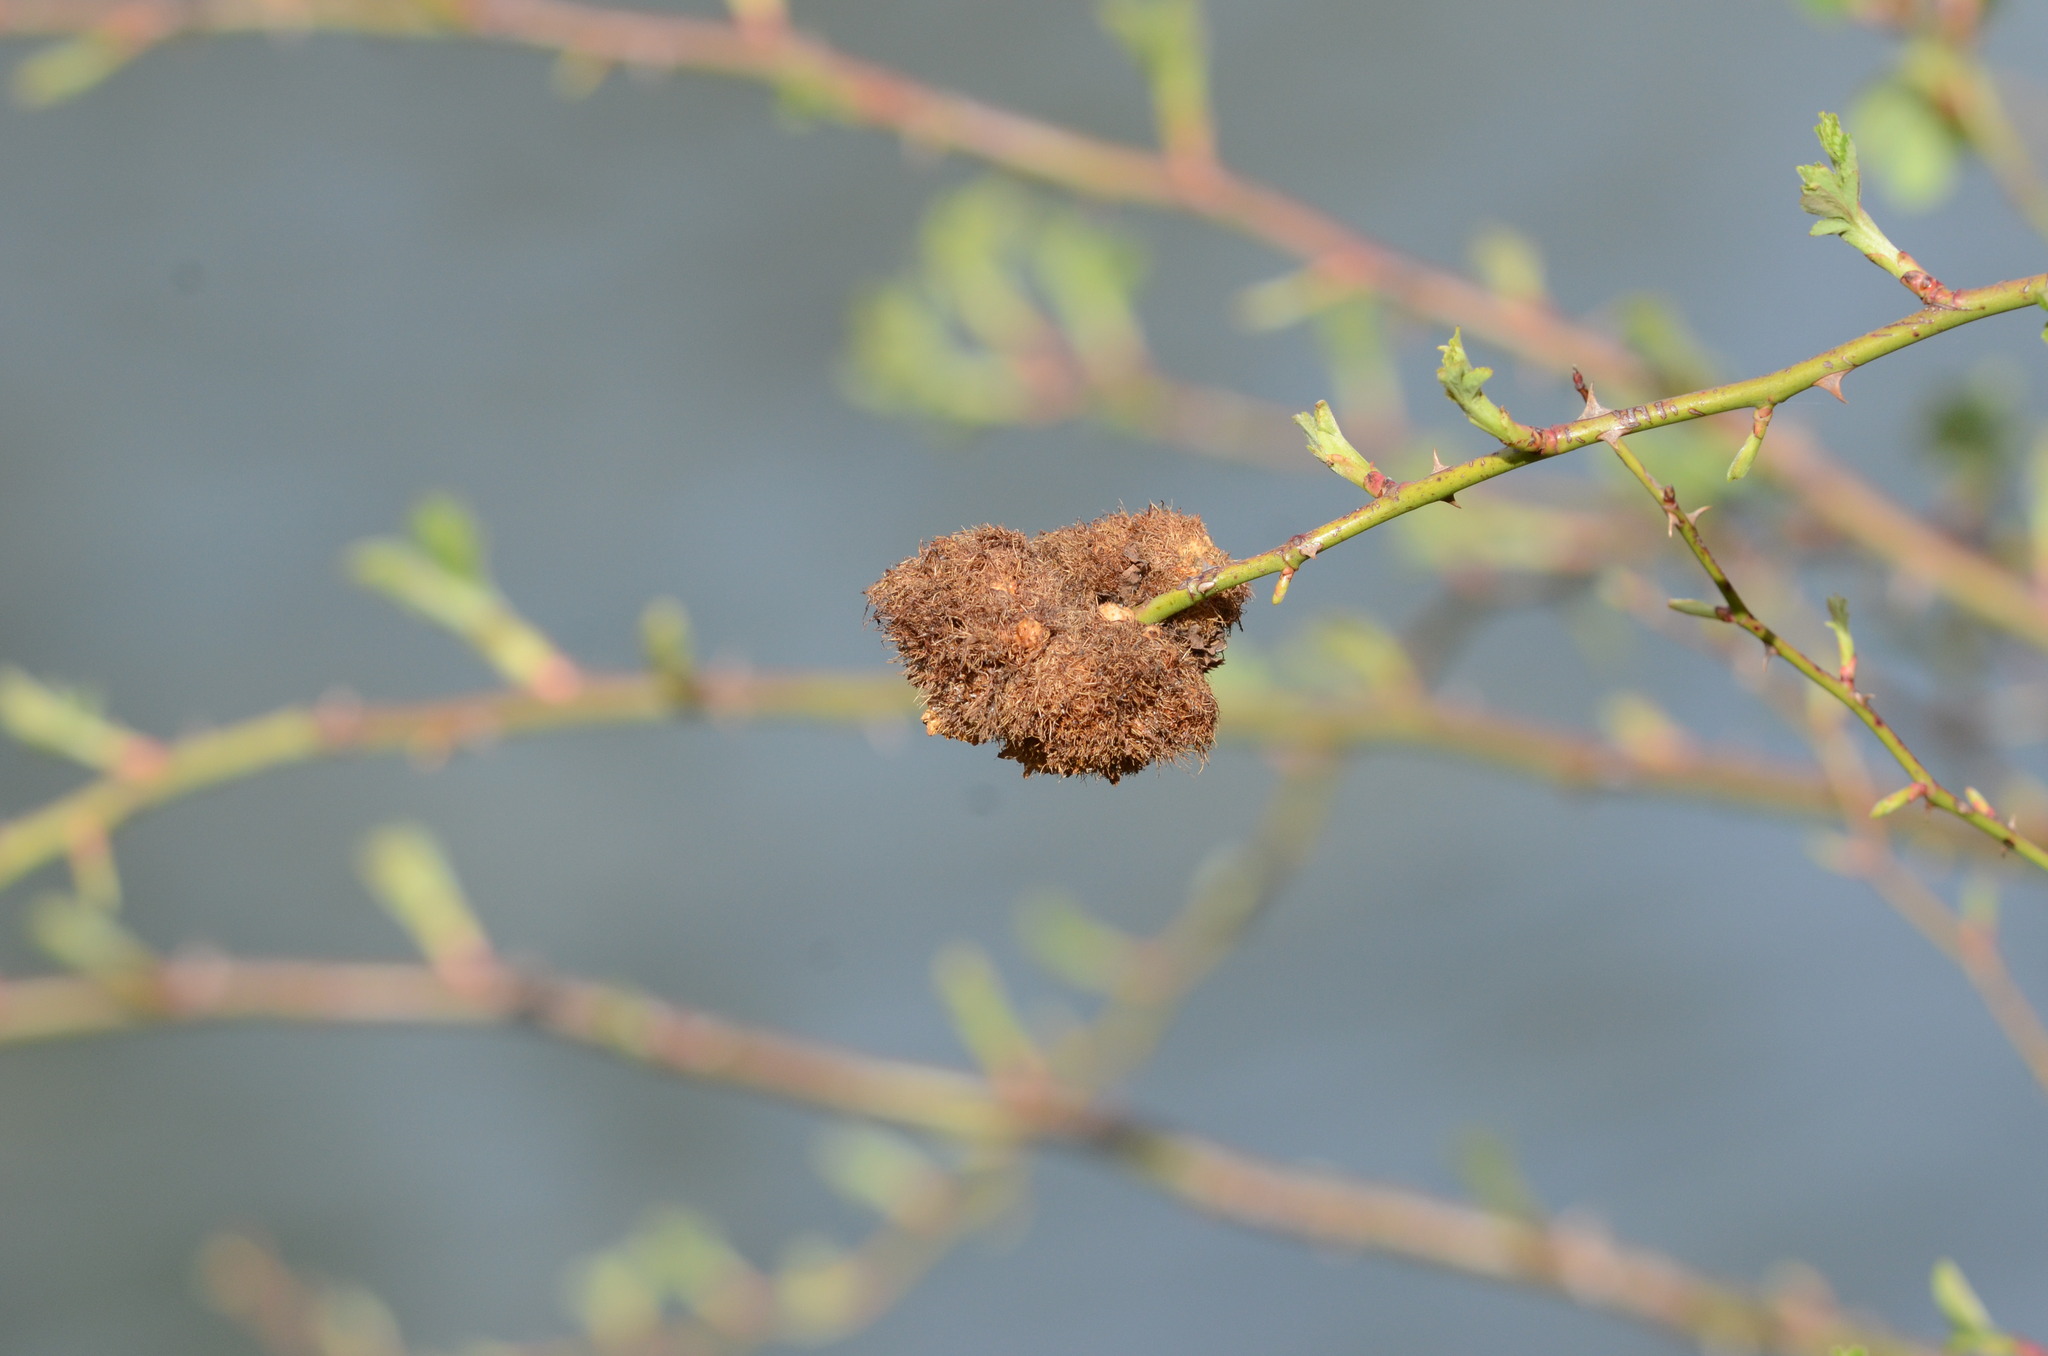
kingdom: Animalia
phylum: Arthropoda
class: Insecta
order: Hymenoptera
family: Cynipidae
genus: Diplolepis
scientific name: Diplolepis rosae
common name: Bedeguar gall
